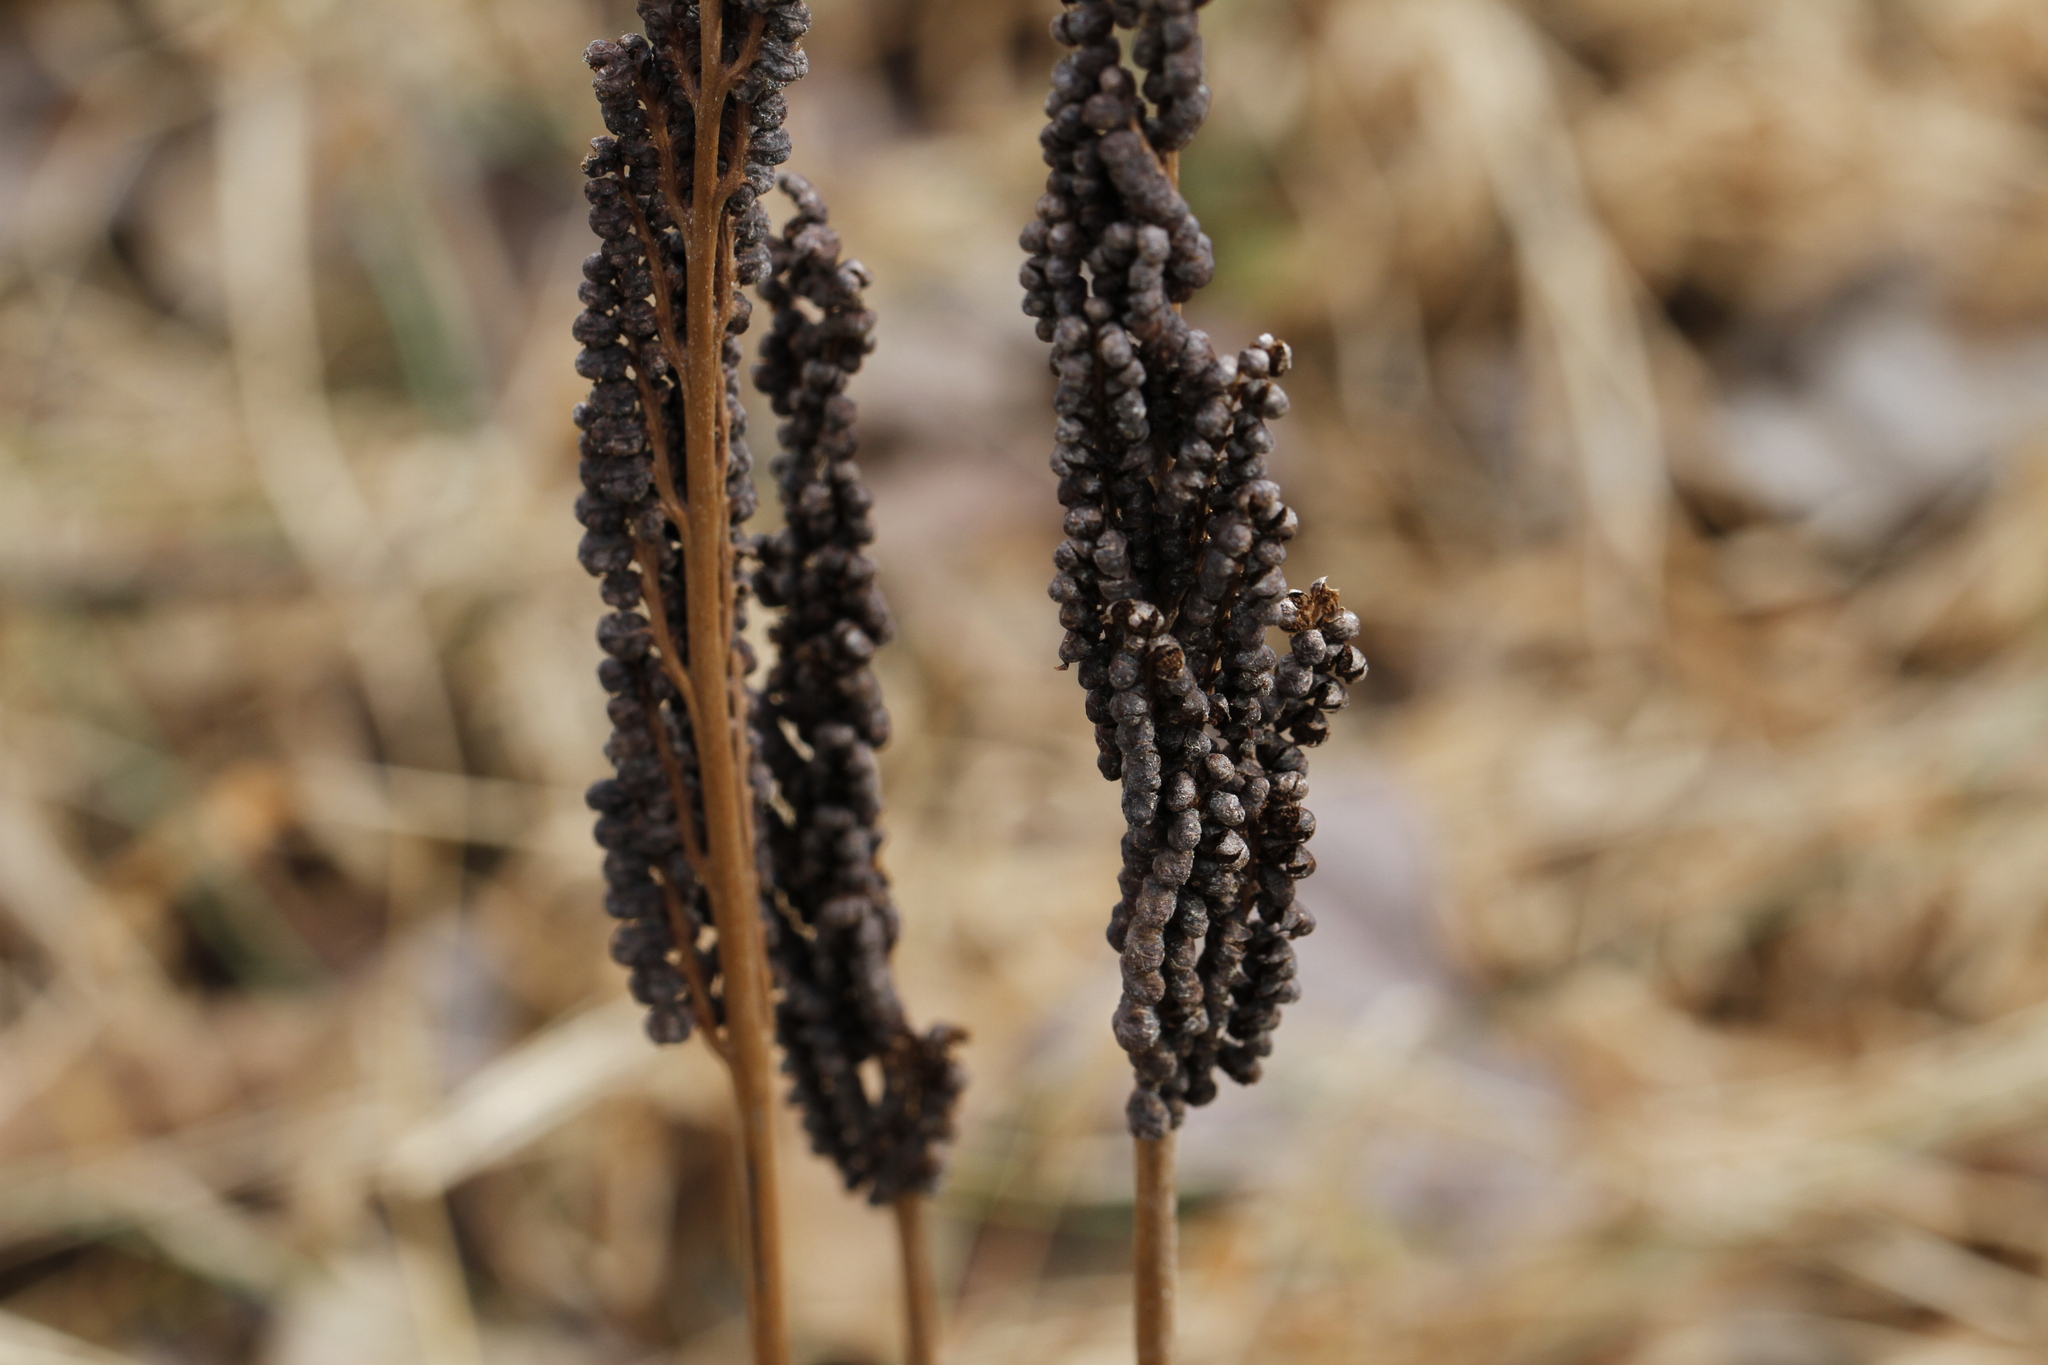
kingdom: Plantae
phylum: Tracheophyta
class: Polypodiopsida
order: Polypodiales
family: Onocleaceae
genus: Onoclea
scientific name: Onoclea sensibilis
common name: Sensitive fern
